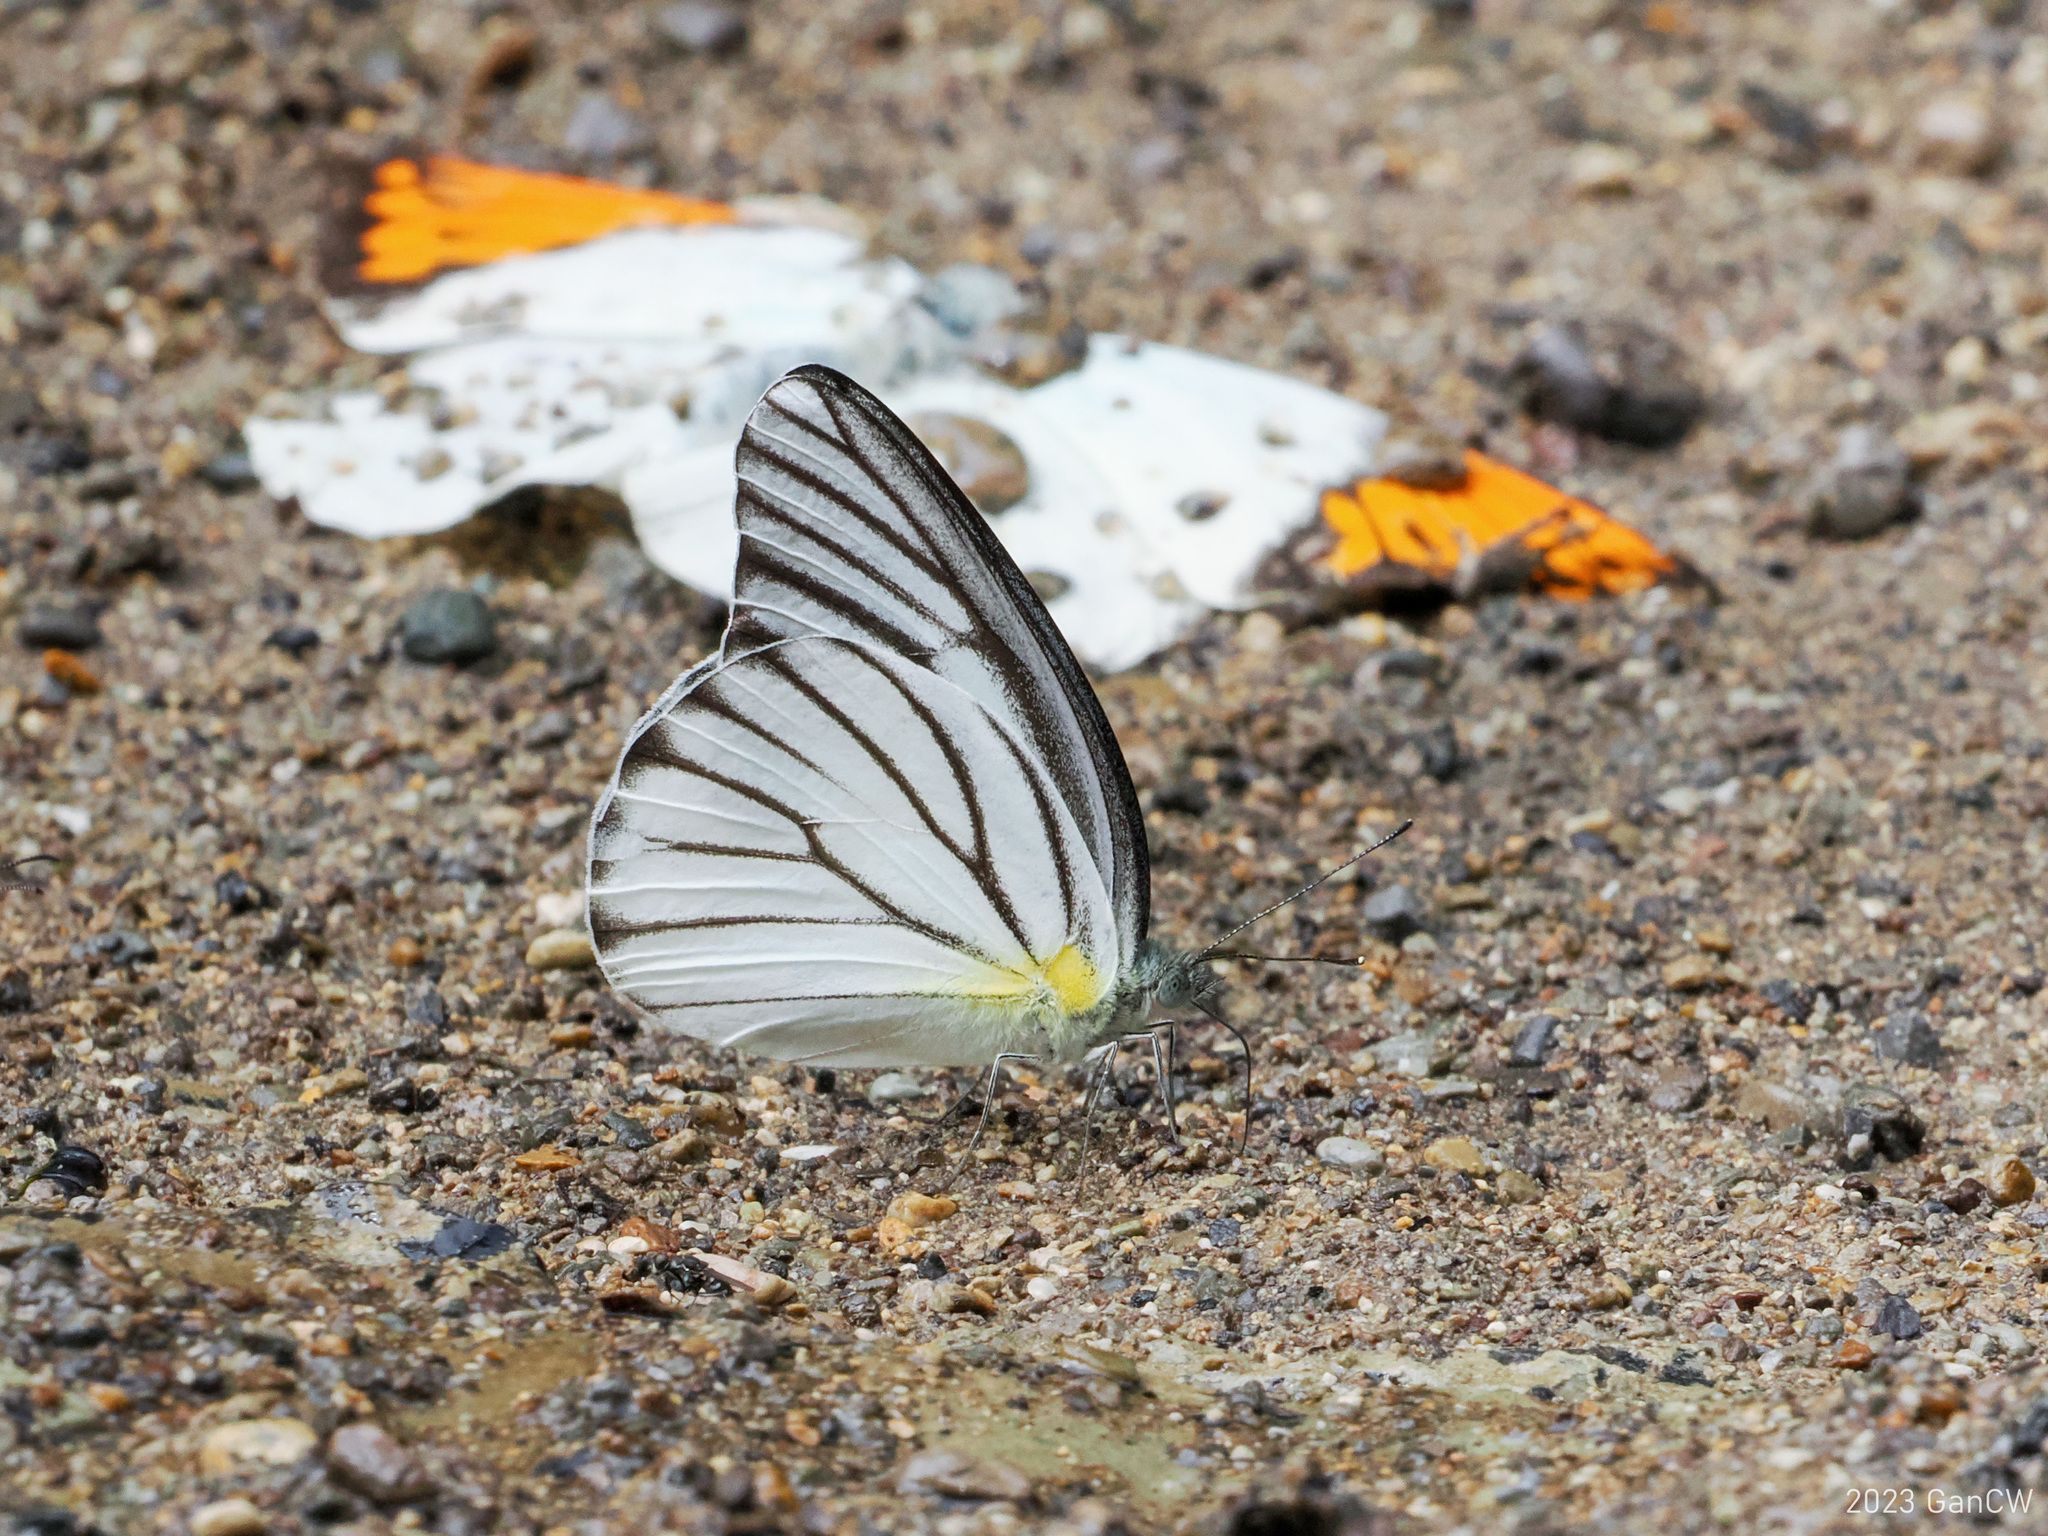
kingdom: Animalia
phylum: Arthropoda
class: Insecta
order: Lepidoptera
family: Pieridae
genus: Appias
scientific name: Appias hombroni
